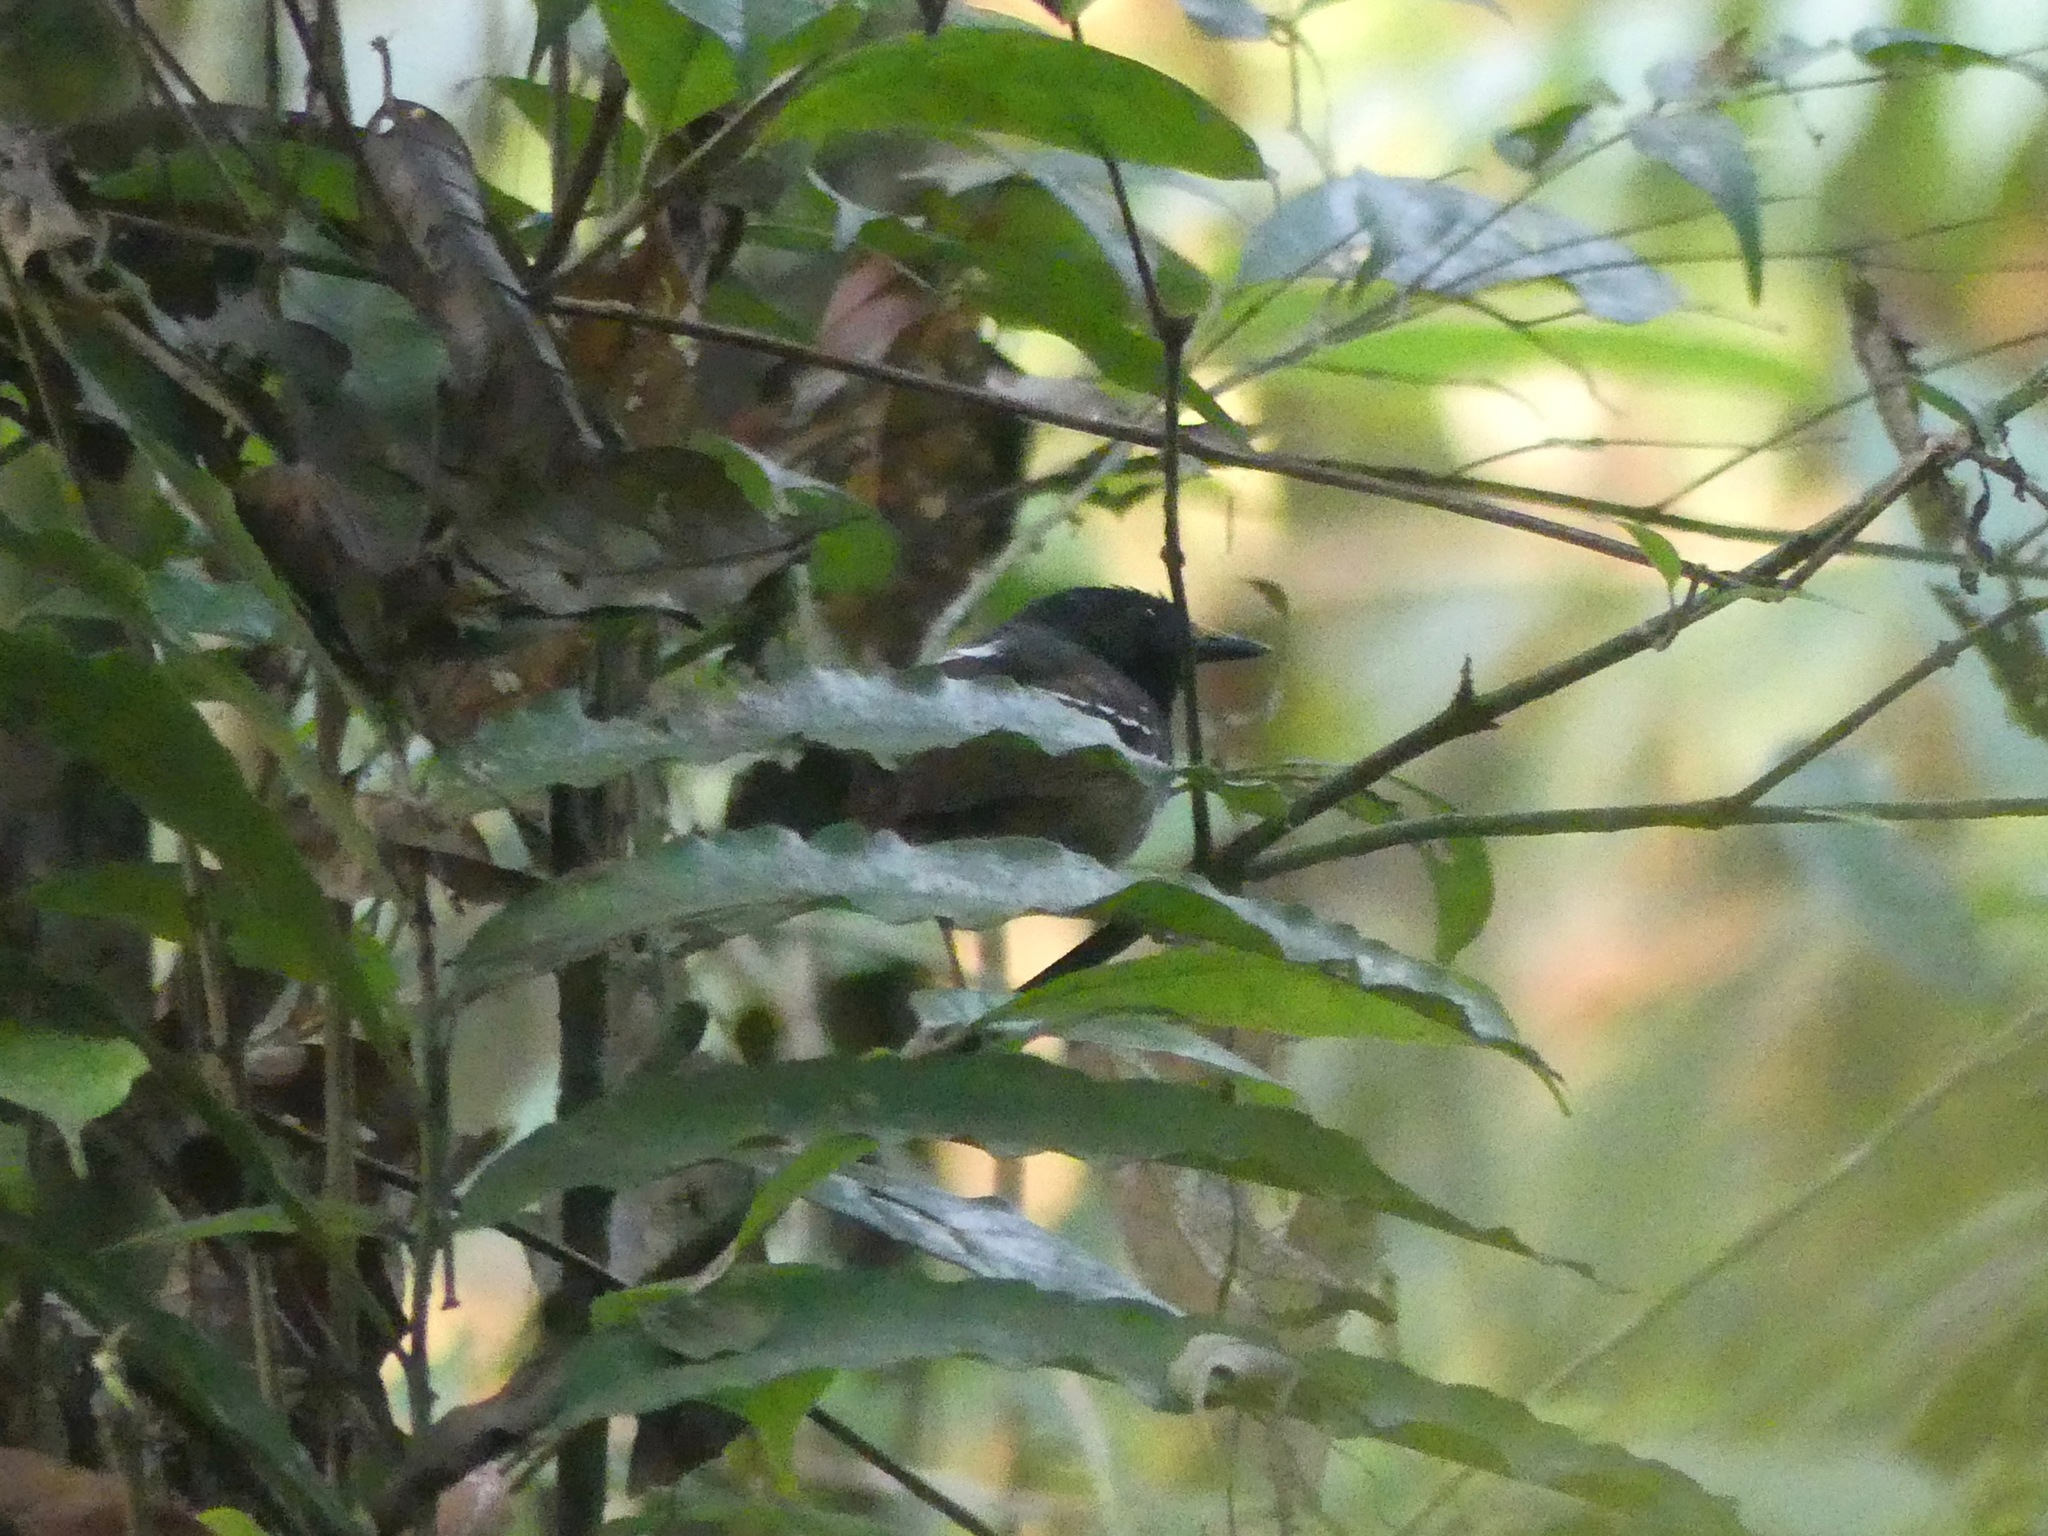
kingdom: Animalia
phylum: Chordata
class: Aves
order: Passeriformes
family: Thamnophilidae
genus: Myrmeciza
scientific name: Myrmeciza hemimelaena
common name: Southern chestnut-tailed antbird
